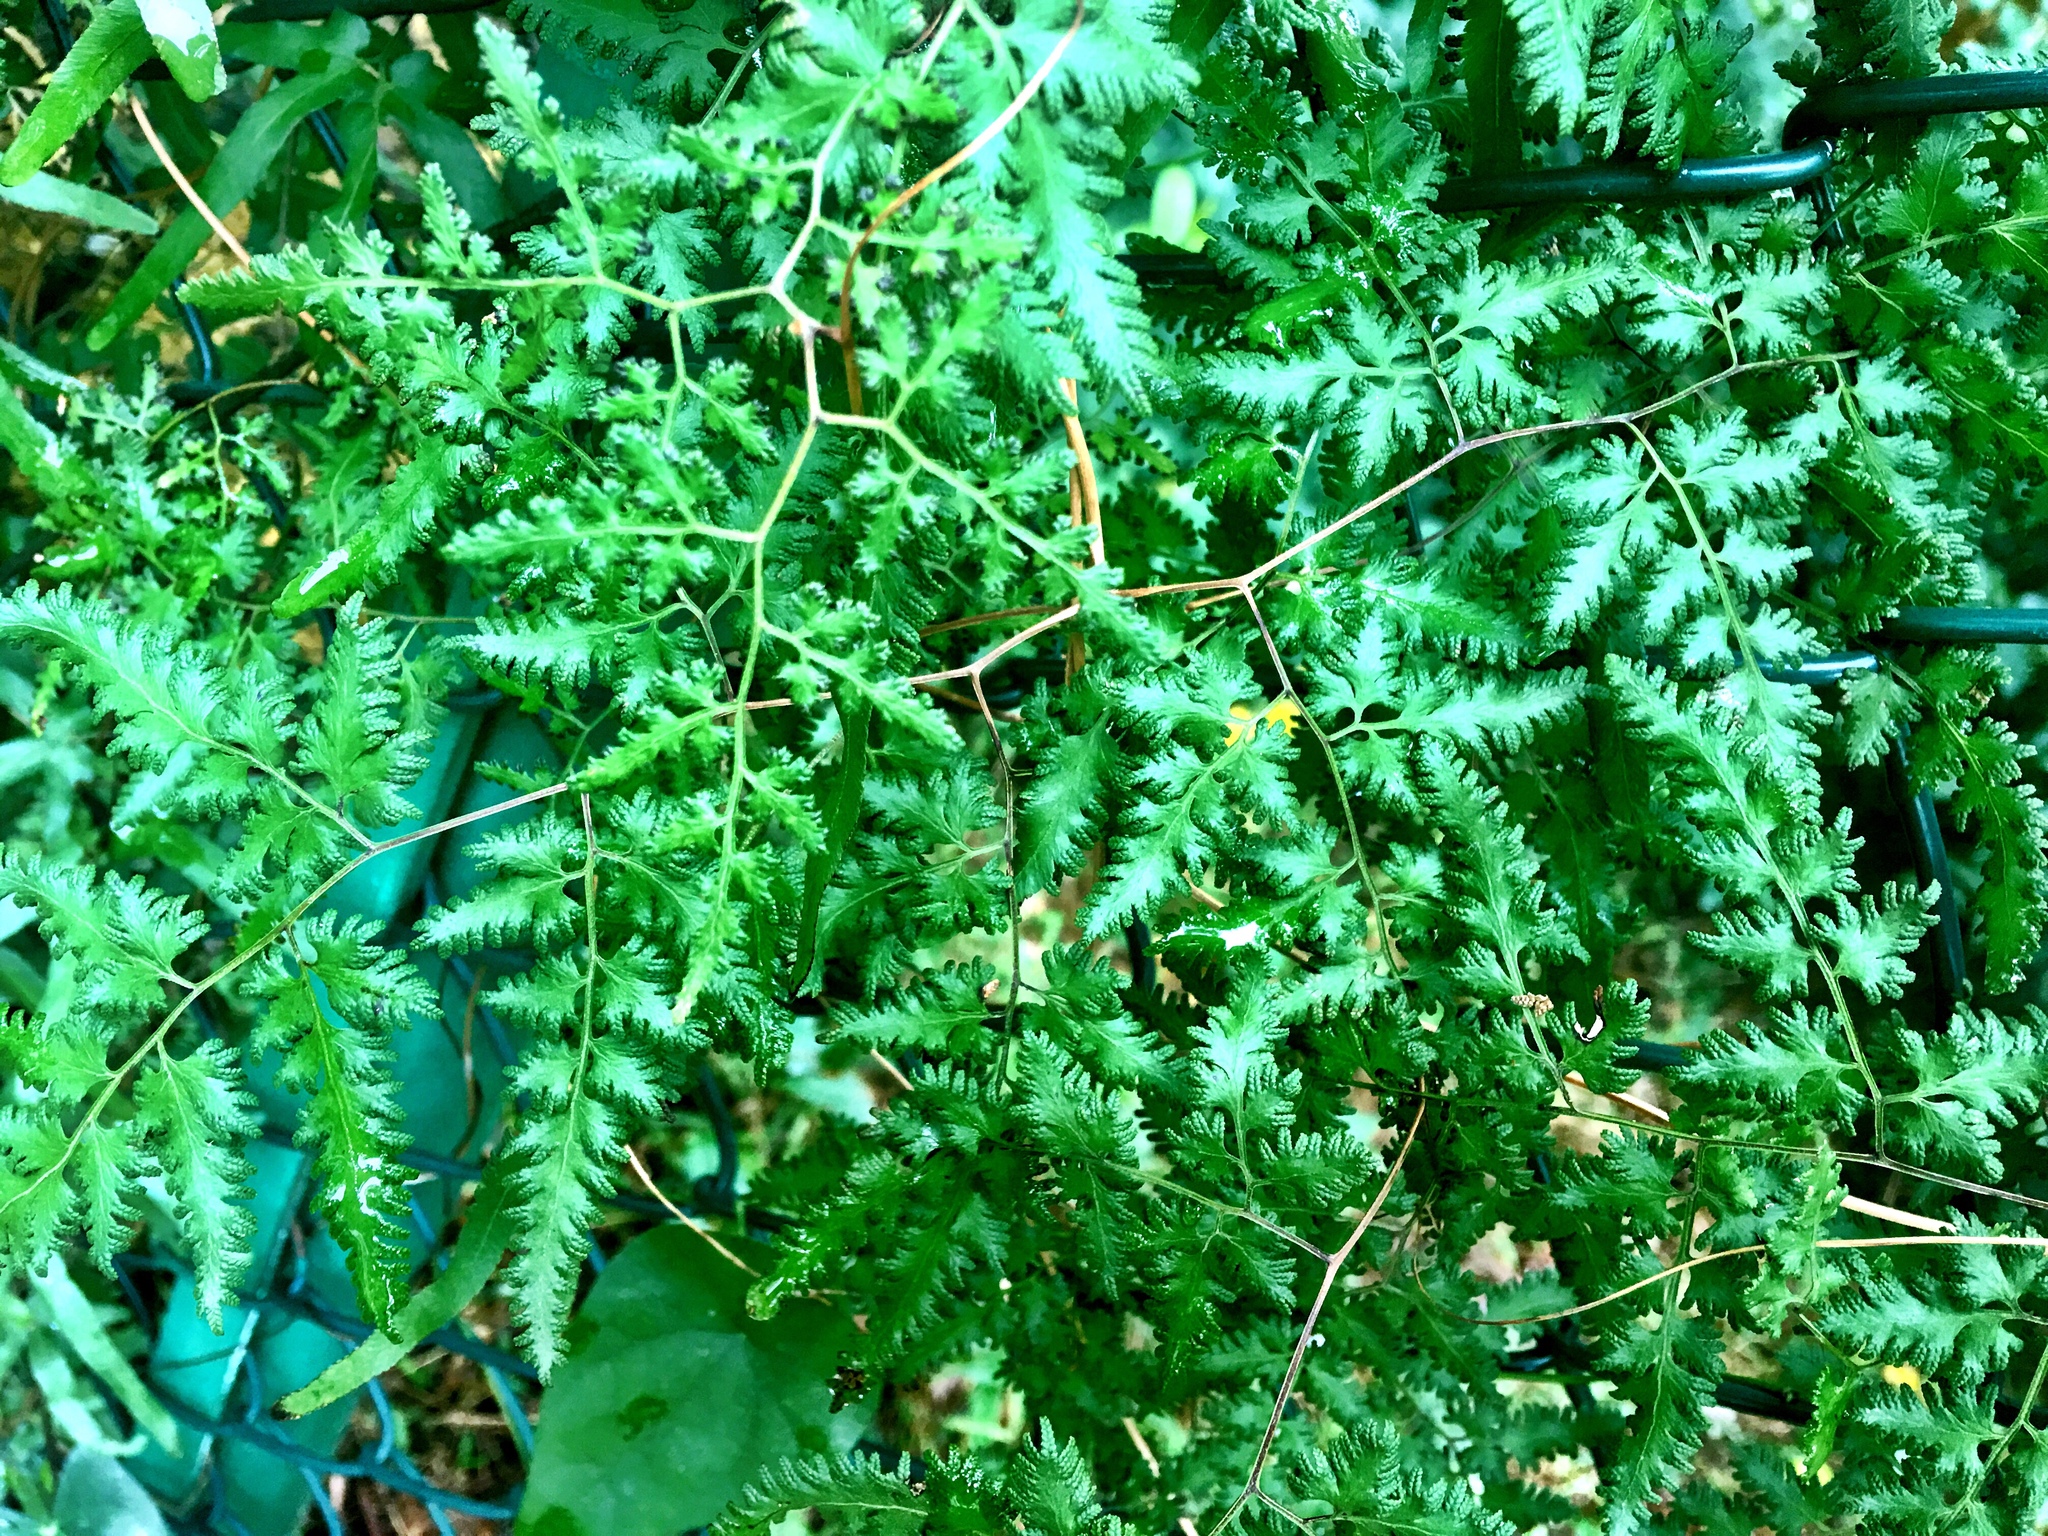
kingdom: Plantae
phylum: Tracheophyta
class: Polypodiopsida
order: Schizaeales
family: Lygodiaceae
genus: Lygodium
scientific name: Lygodium japonicum
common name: Japanese climbing fern
